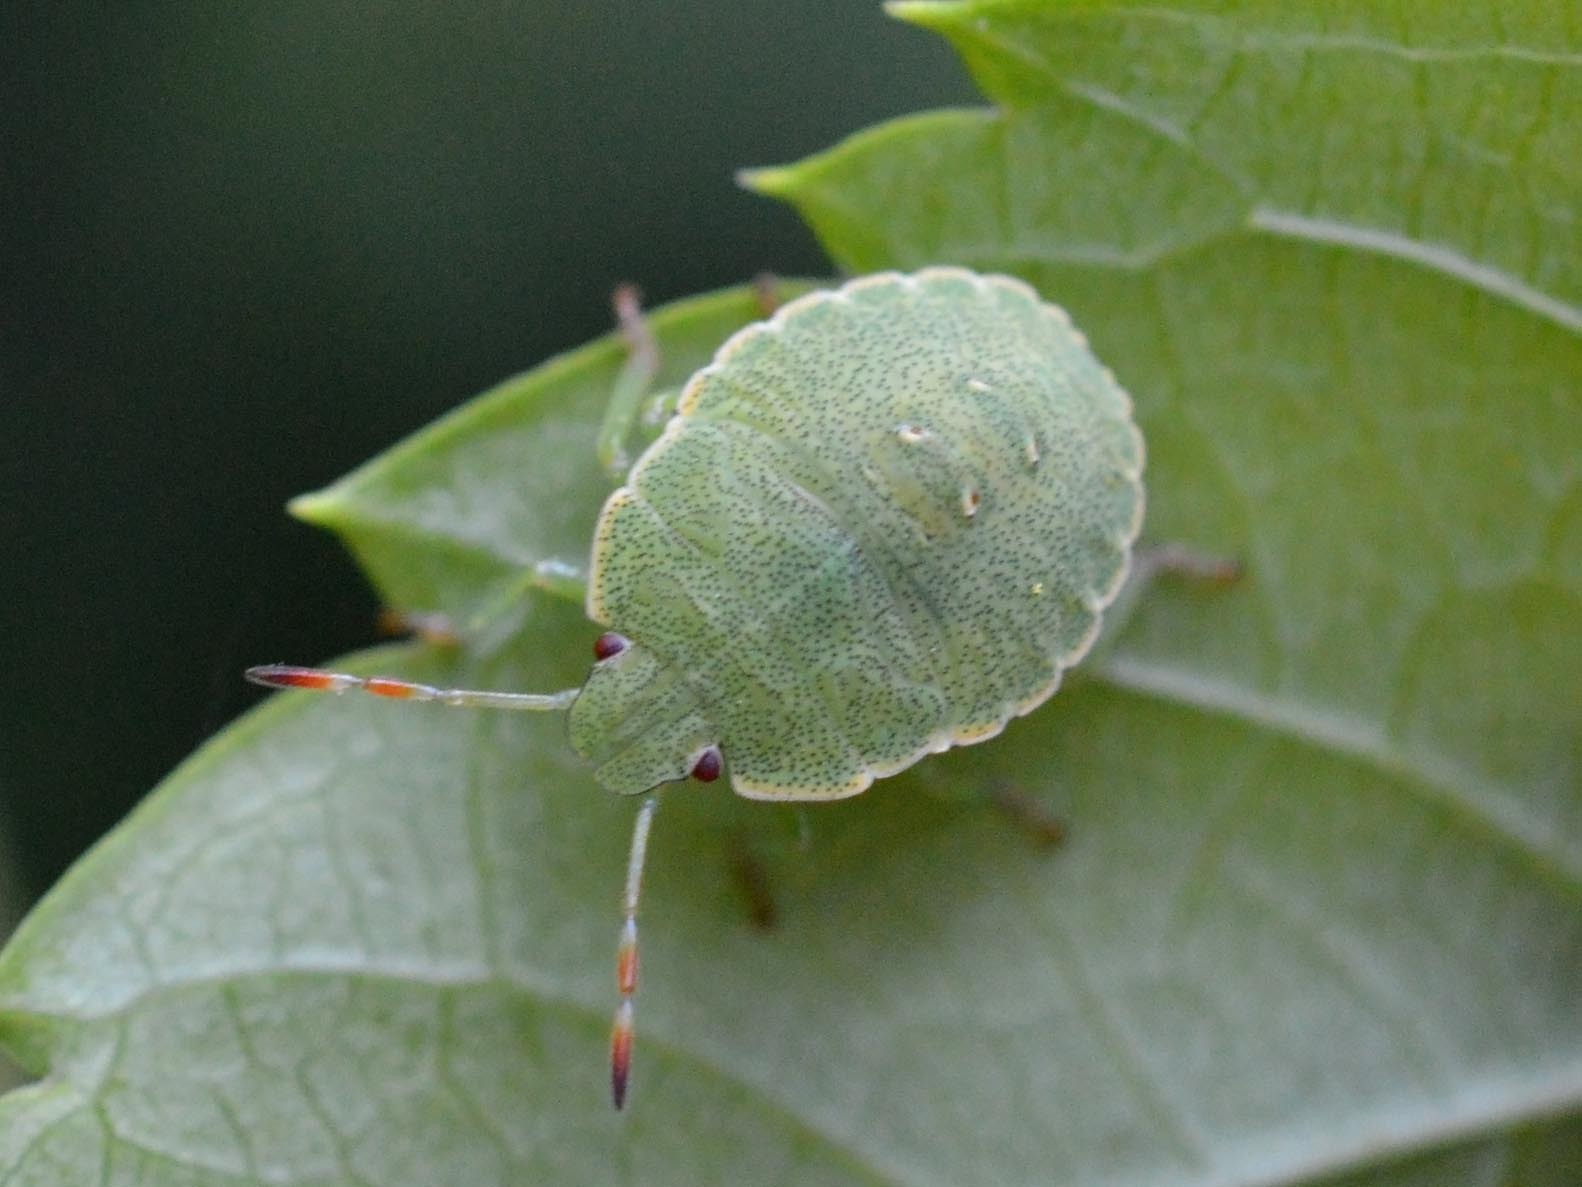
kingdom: Animalia
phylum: Arthropoda
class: Insecta
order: Hemiptera
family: Pentatomidae
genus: Palomena
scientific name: Palomena prasina
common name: Green shieldbug
